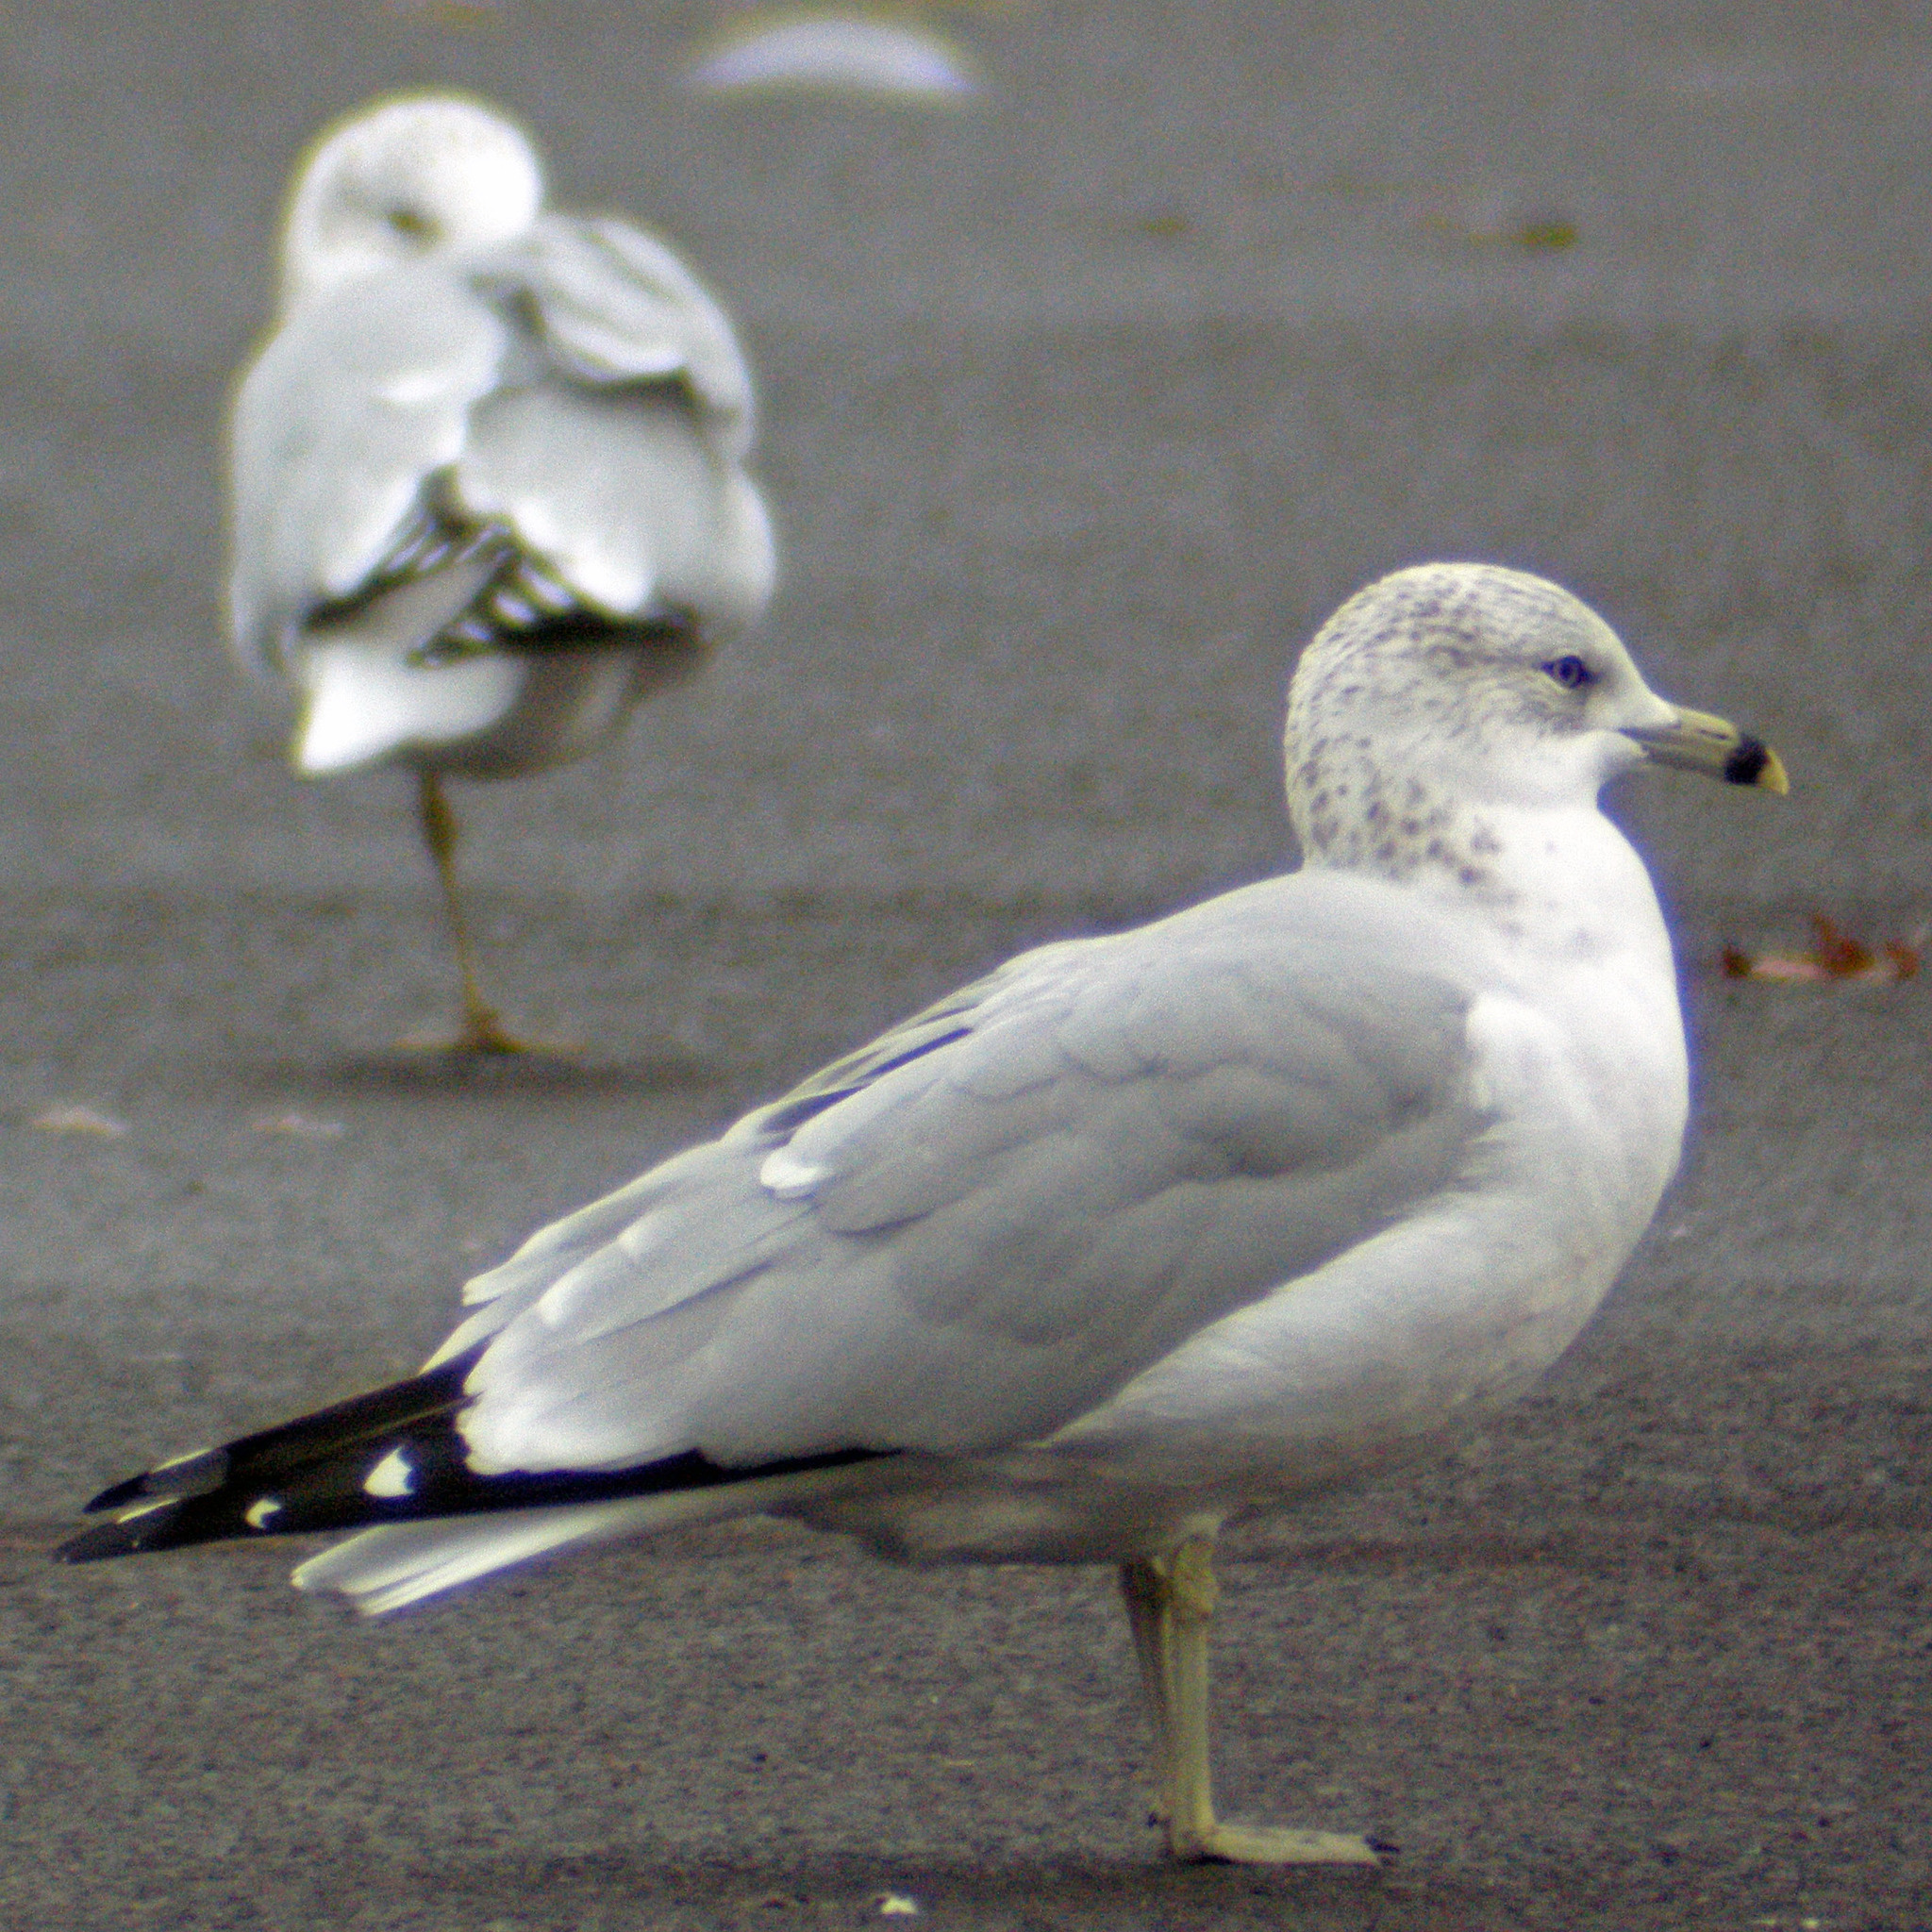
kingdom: Animalia
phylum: Chordata
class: Aves
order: Charadriiformes
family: Laridae
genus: Larus
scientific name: Larus delawarensis
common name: Ring-billed gull
